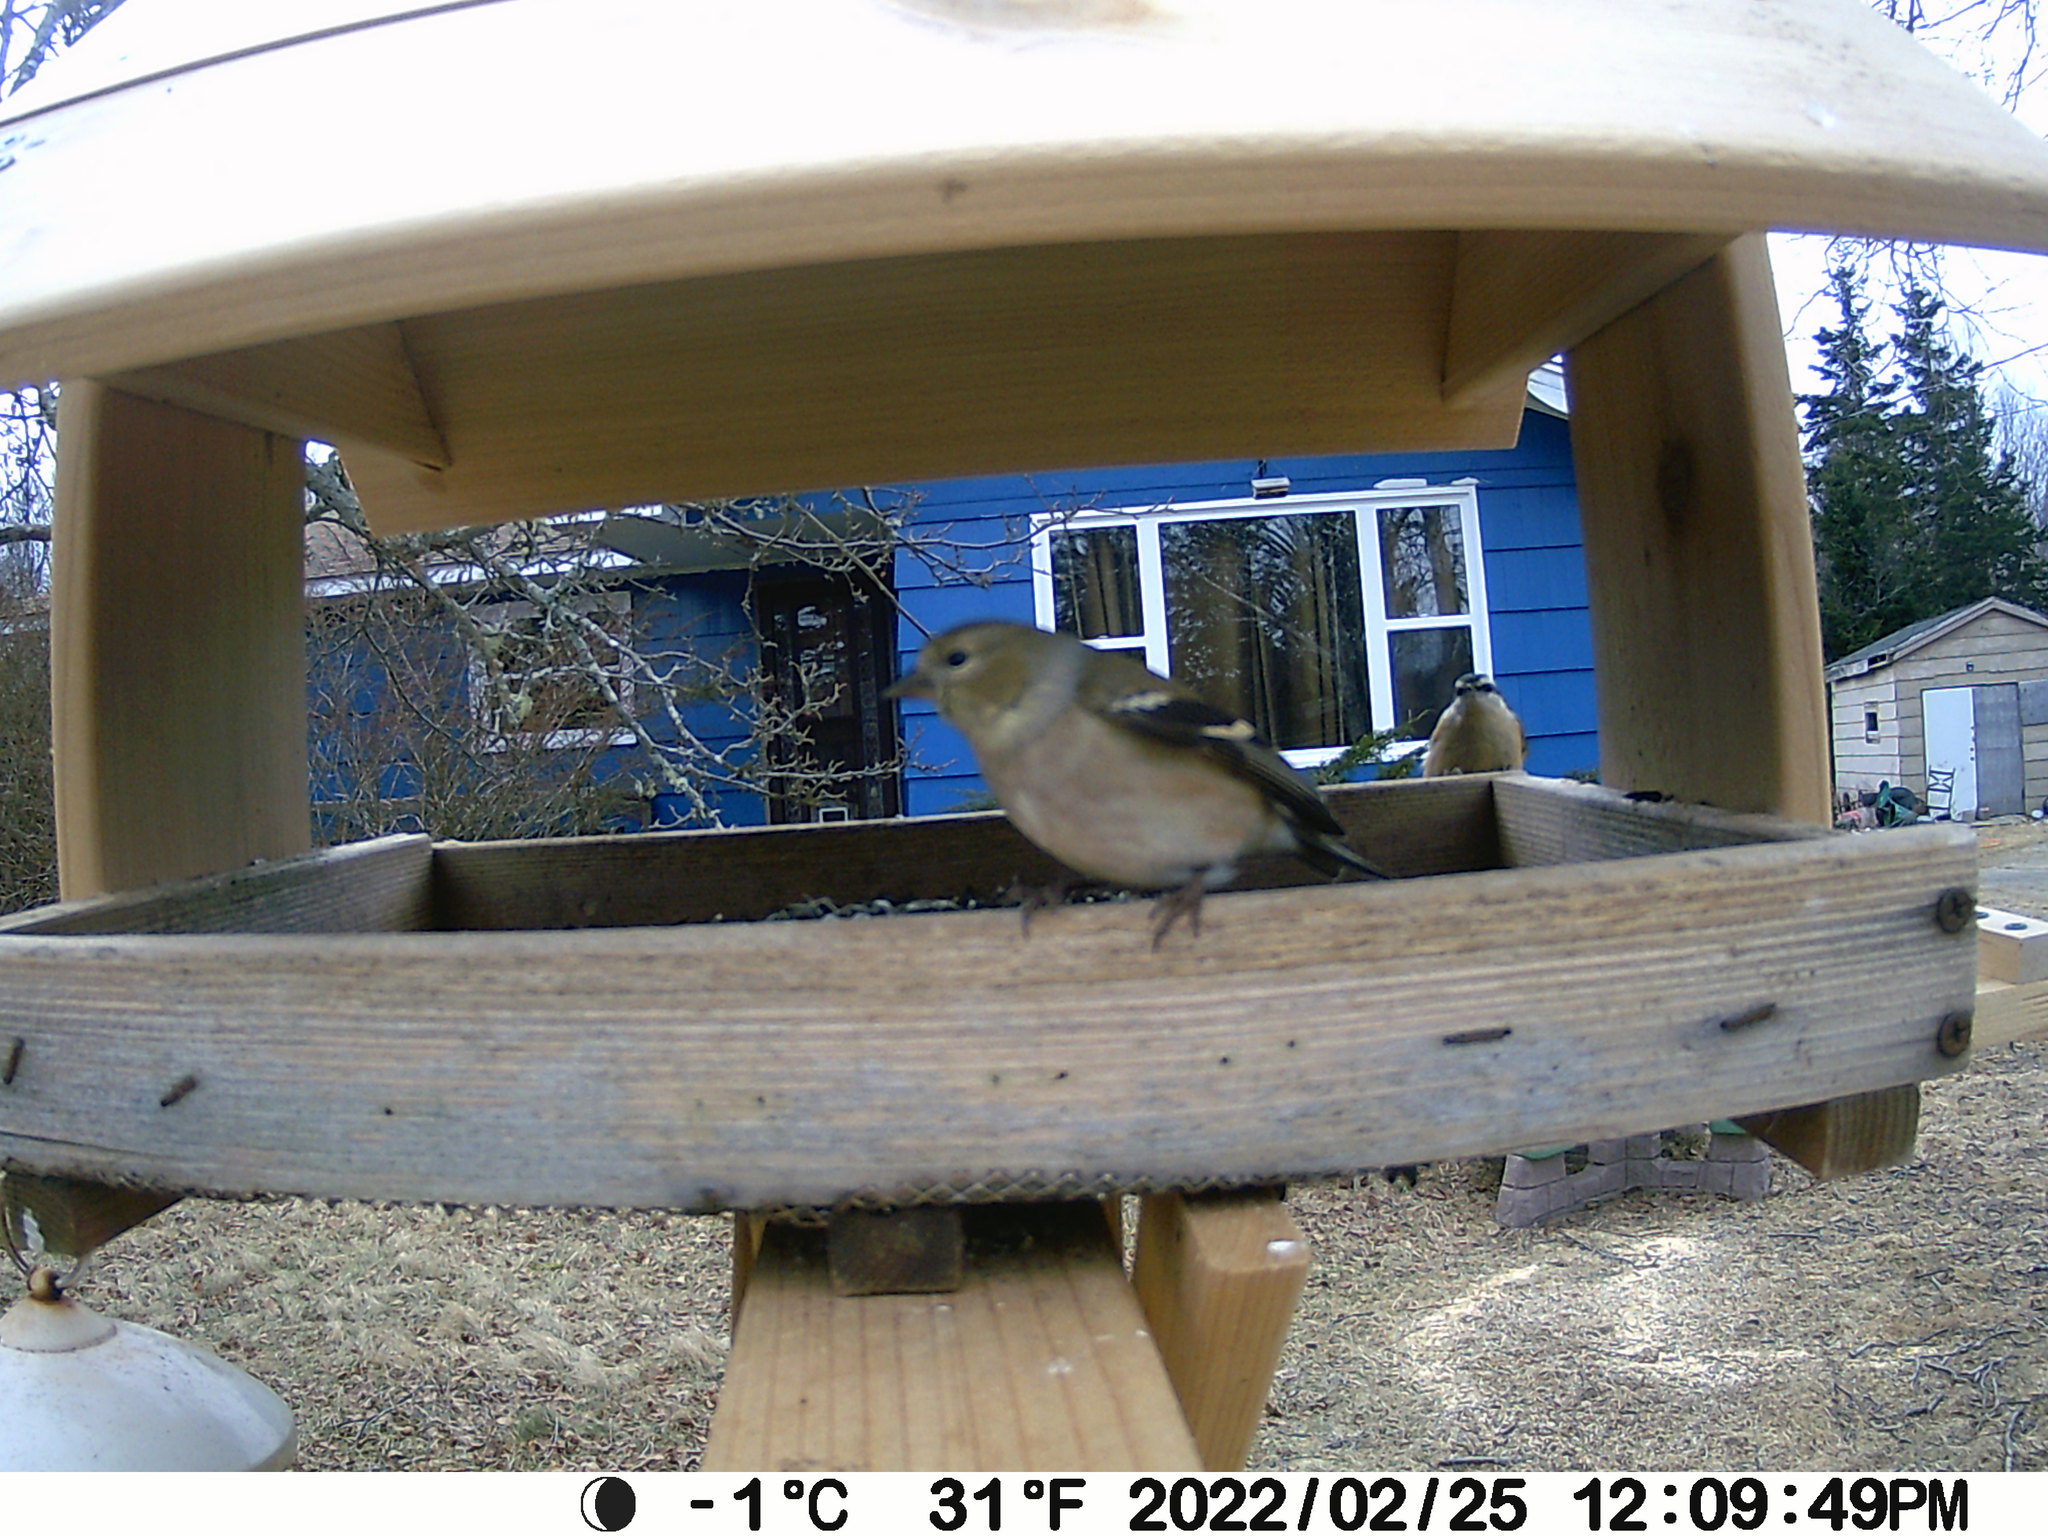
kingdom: Animalia
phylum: Chordata
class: Aves
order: Passeriformes
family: Sittidae
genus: Sitta
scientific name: Sitta canadensis
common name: Red-breasted nuthatch
